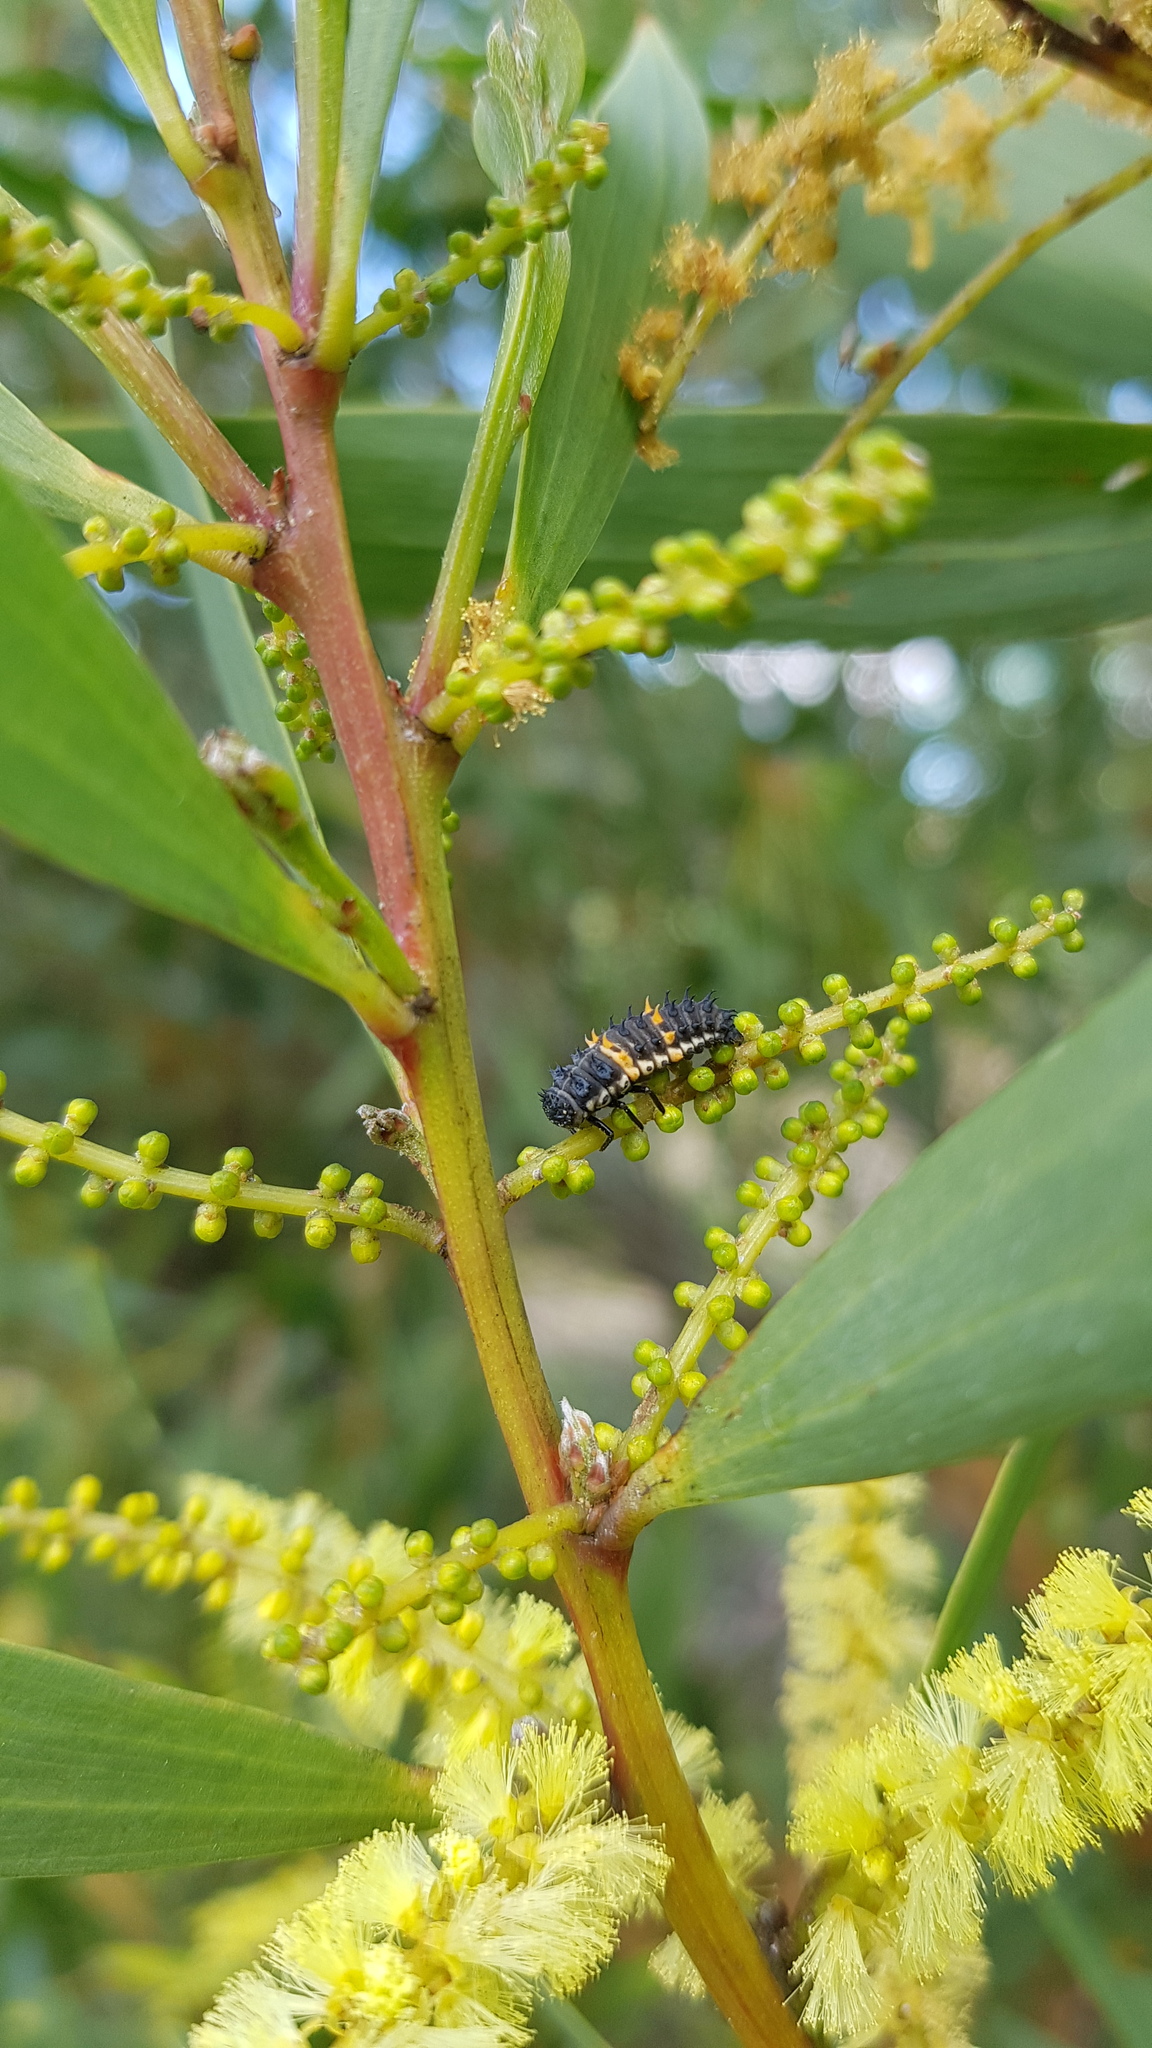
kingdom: Animalia
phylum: Arthropoda
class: Insecta
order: Coleoptera
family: Coccinellidae
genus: Harmonia
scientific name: Harmonia conformis
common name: Common spotted ladybird beetle
